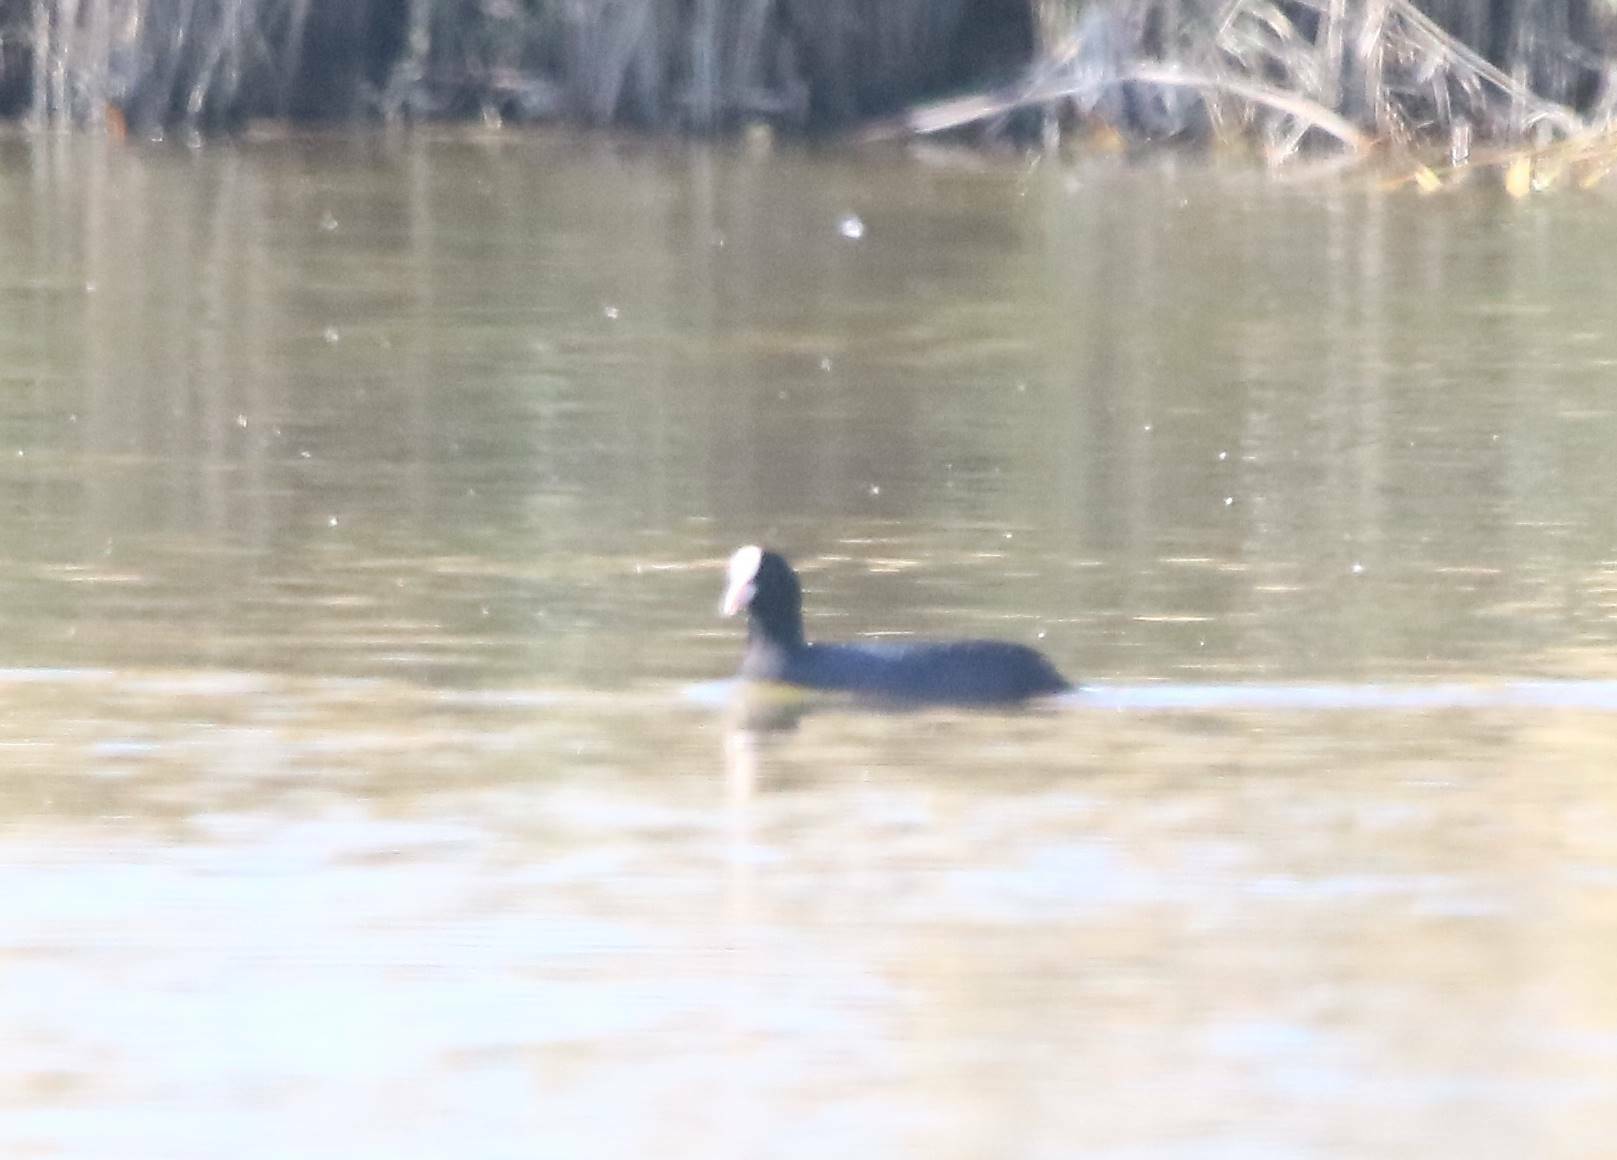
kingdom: Animalia
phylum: Chordata
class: Aves
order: Gruiformes
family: Rallidae
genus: Fulica
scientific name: Fulica atra
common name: Eurasian coot
